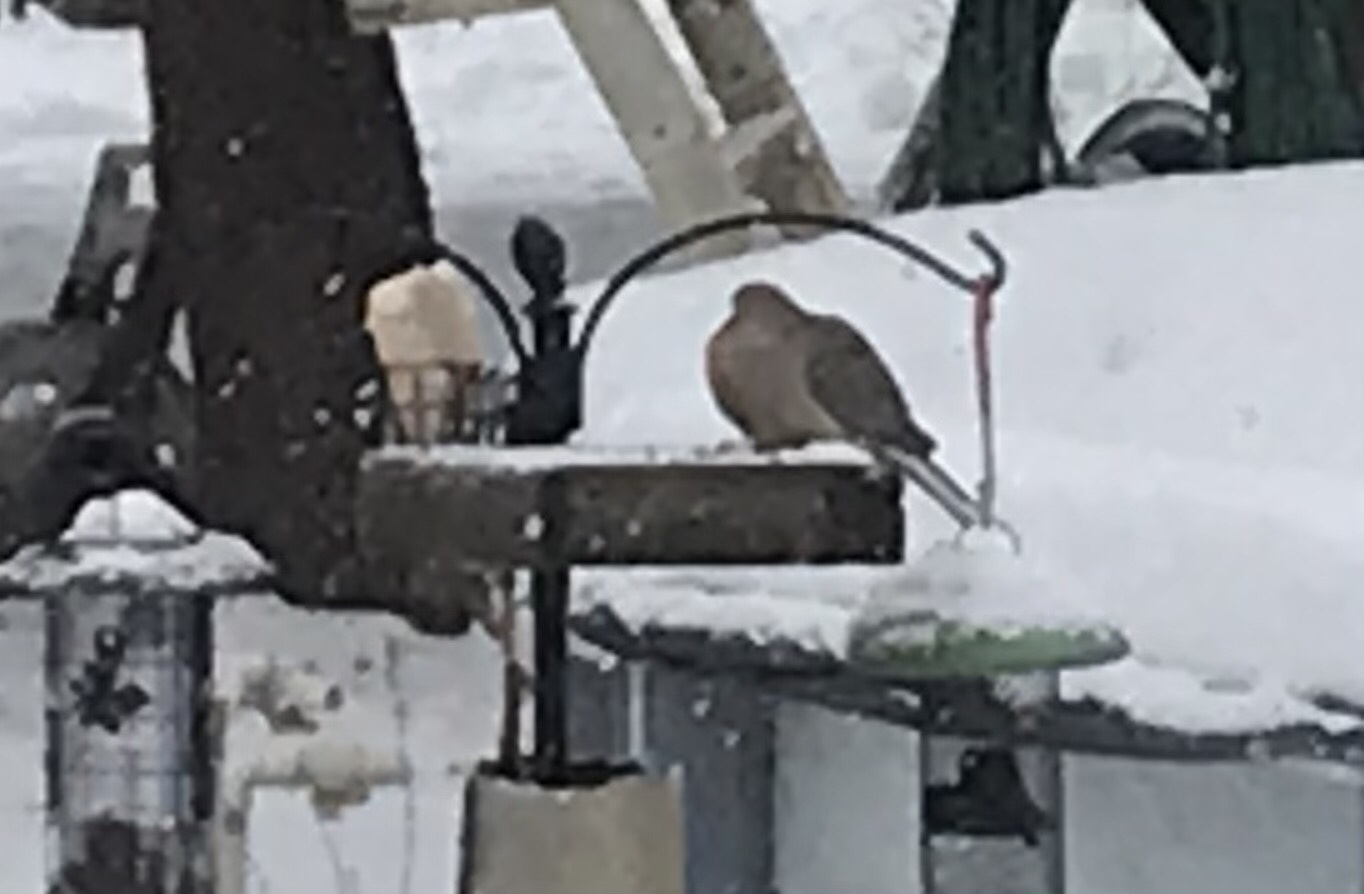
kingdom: Animalia
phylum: Chordata
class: Aves
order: Columbiformes
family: Columbidae
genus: Zenaida
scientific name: Zenaida macroura
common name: Mourning dove
